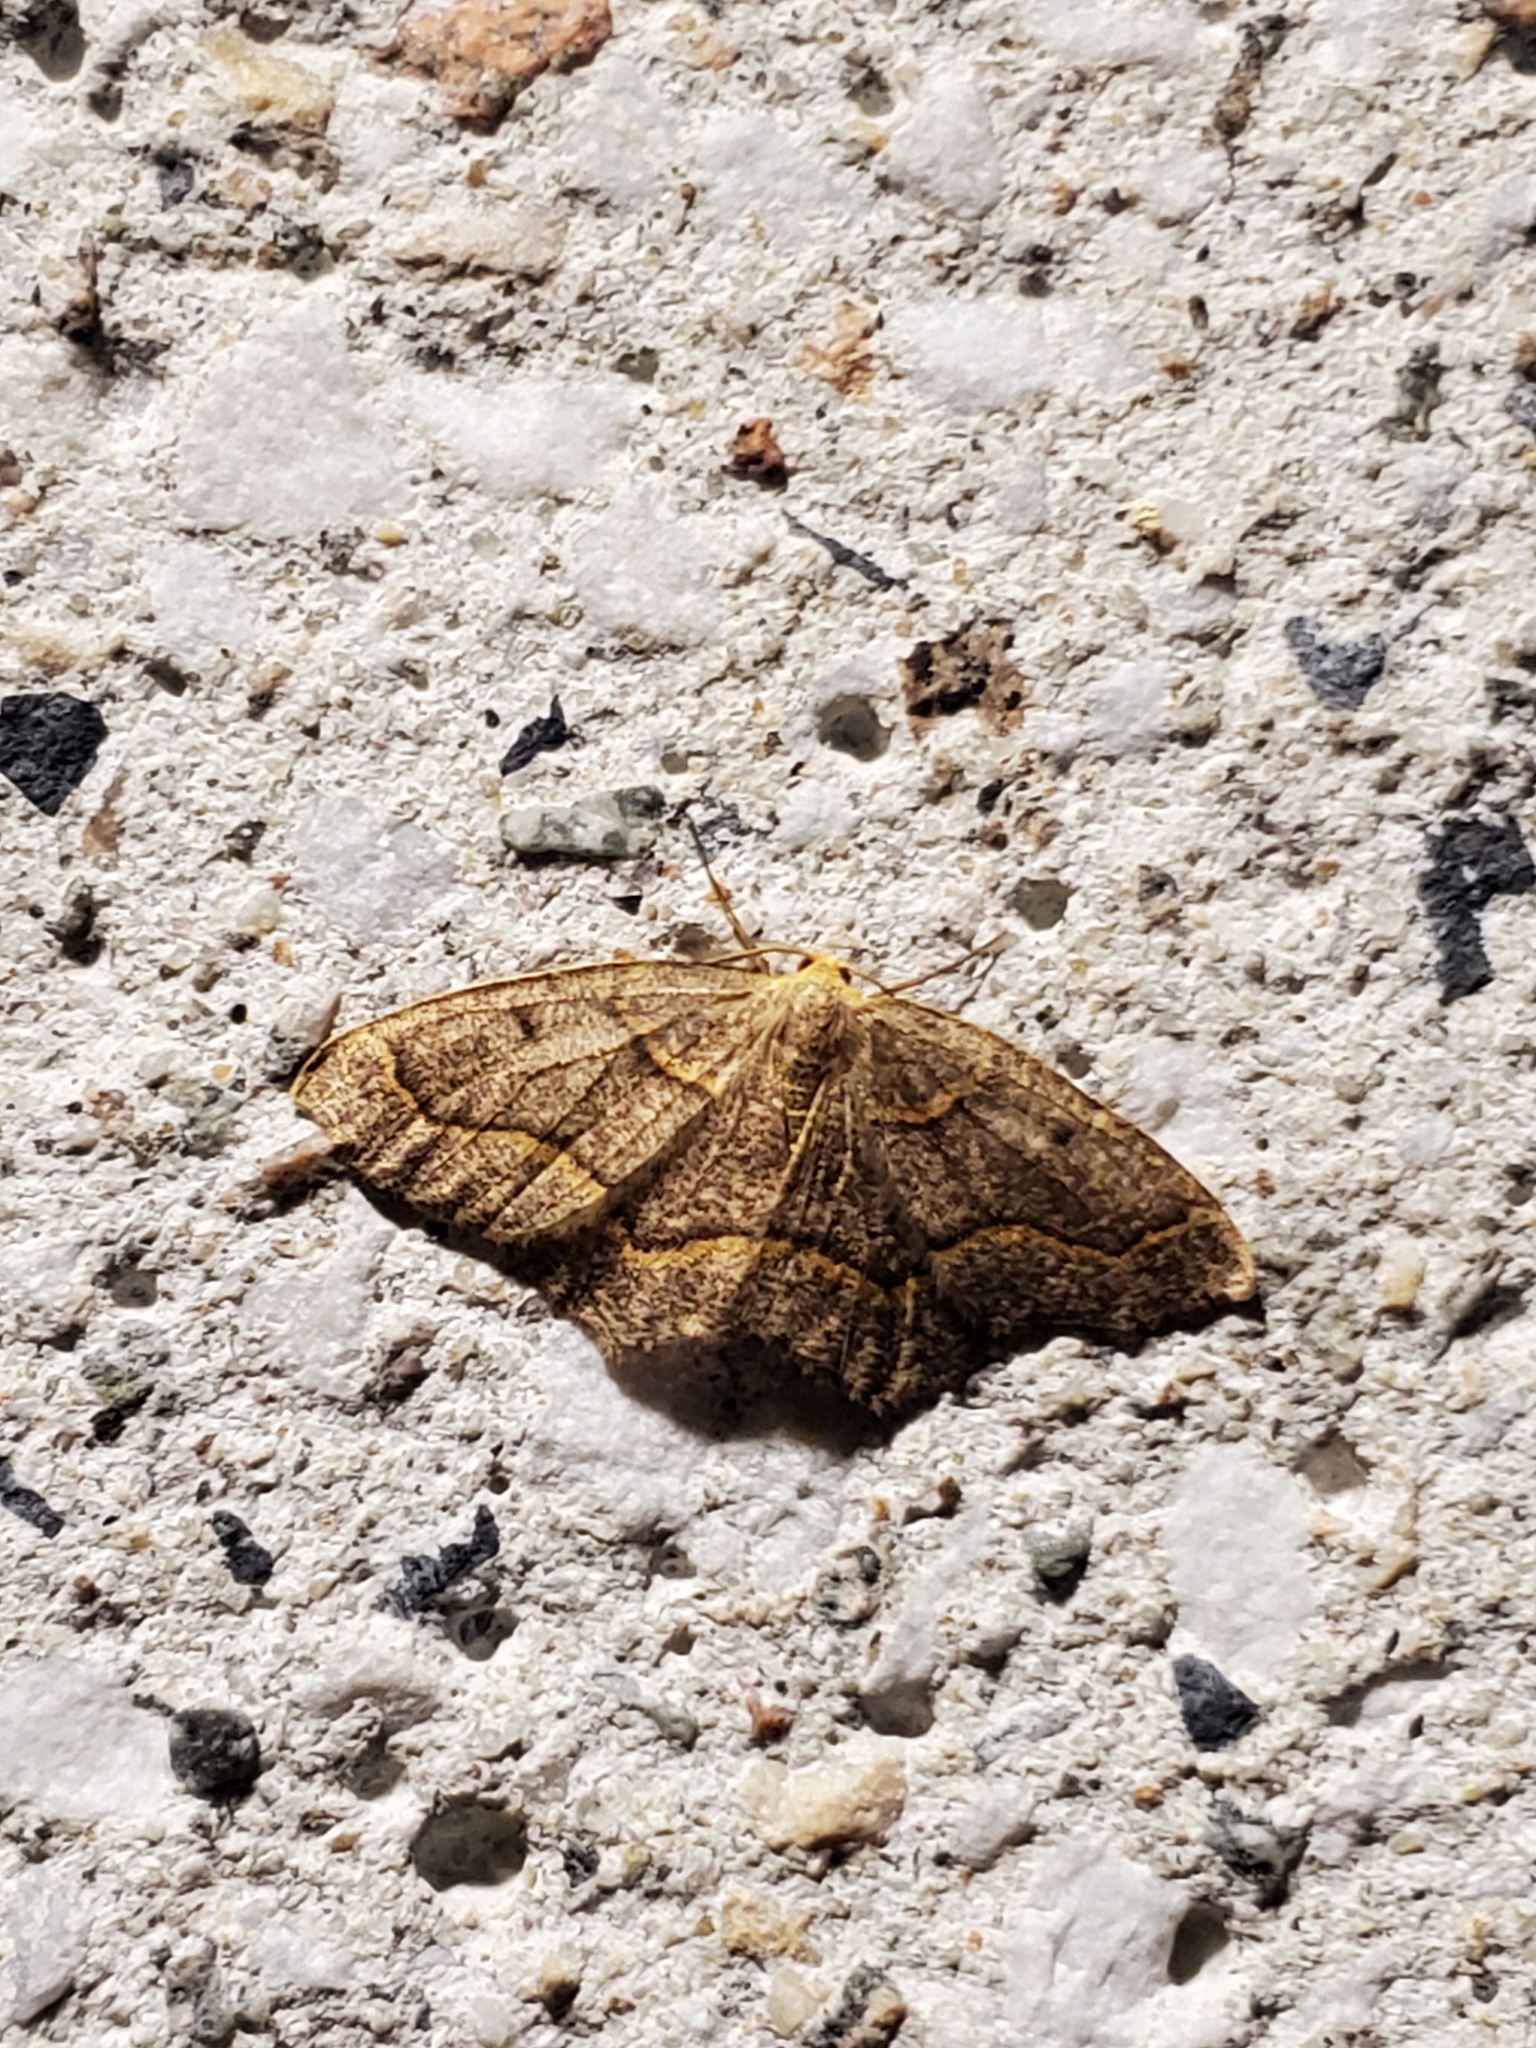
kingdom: Animalia
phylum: Arthropoda
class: Insecta
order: Lepidoptera
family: Geometridae
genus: Lambdina
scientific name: Lambdina fiscellaria
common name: Hemlock looper
